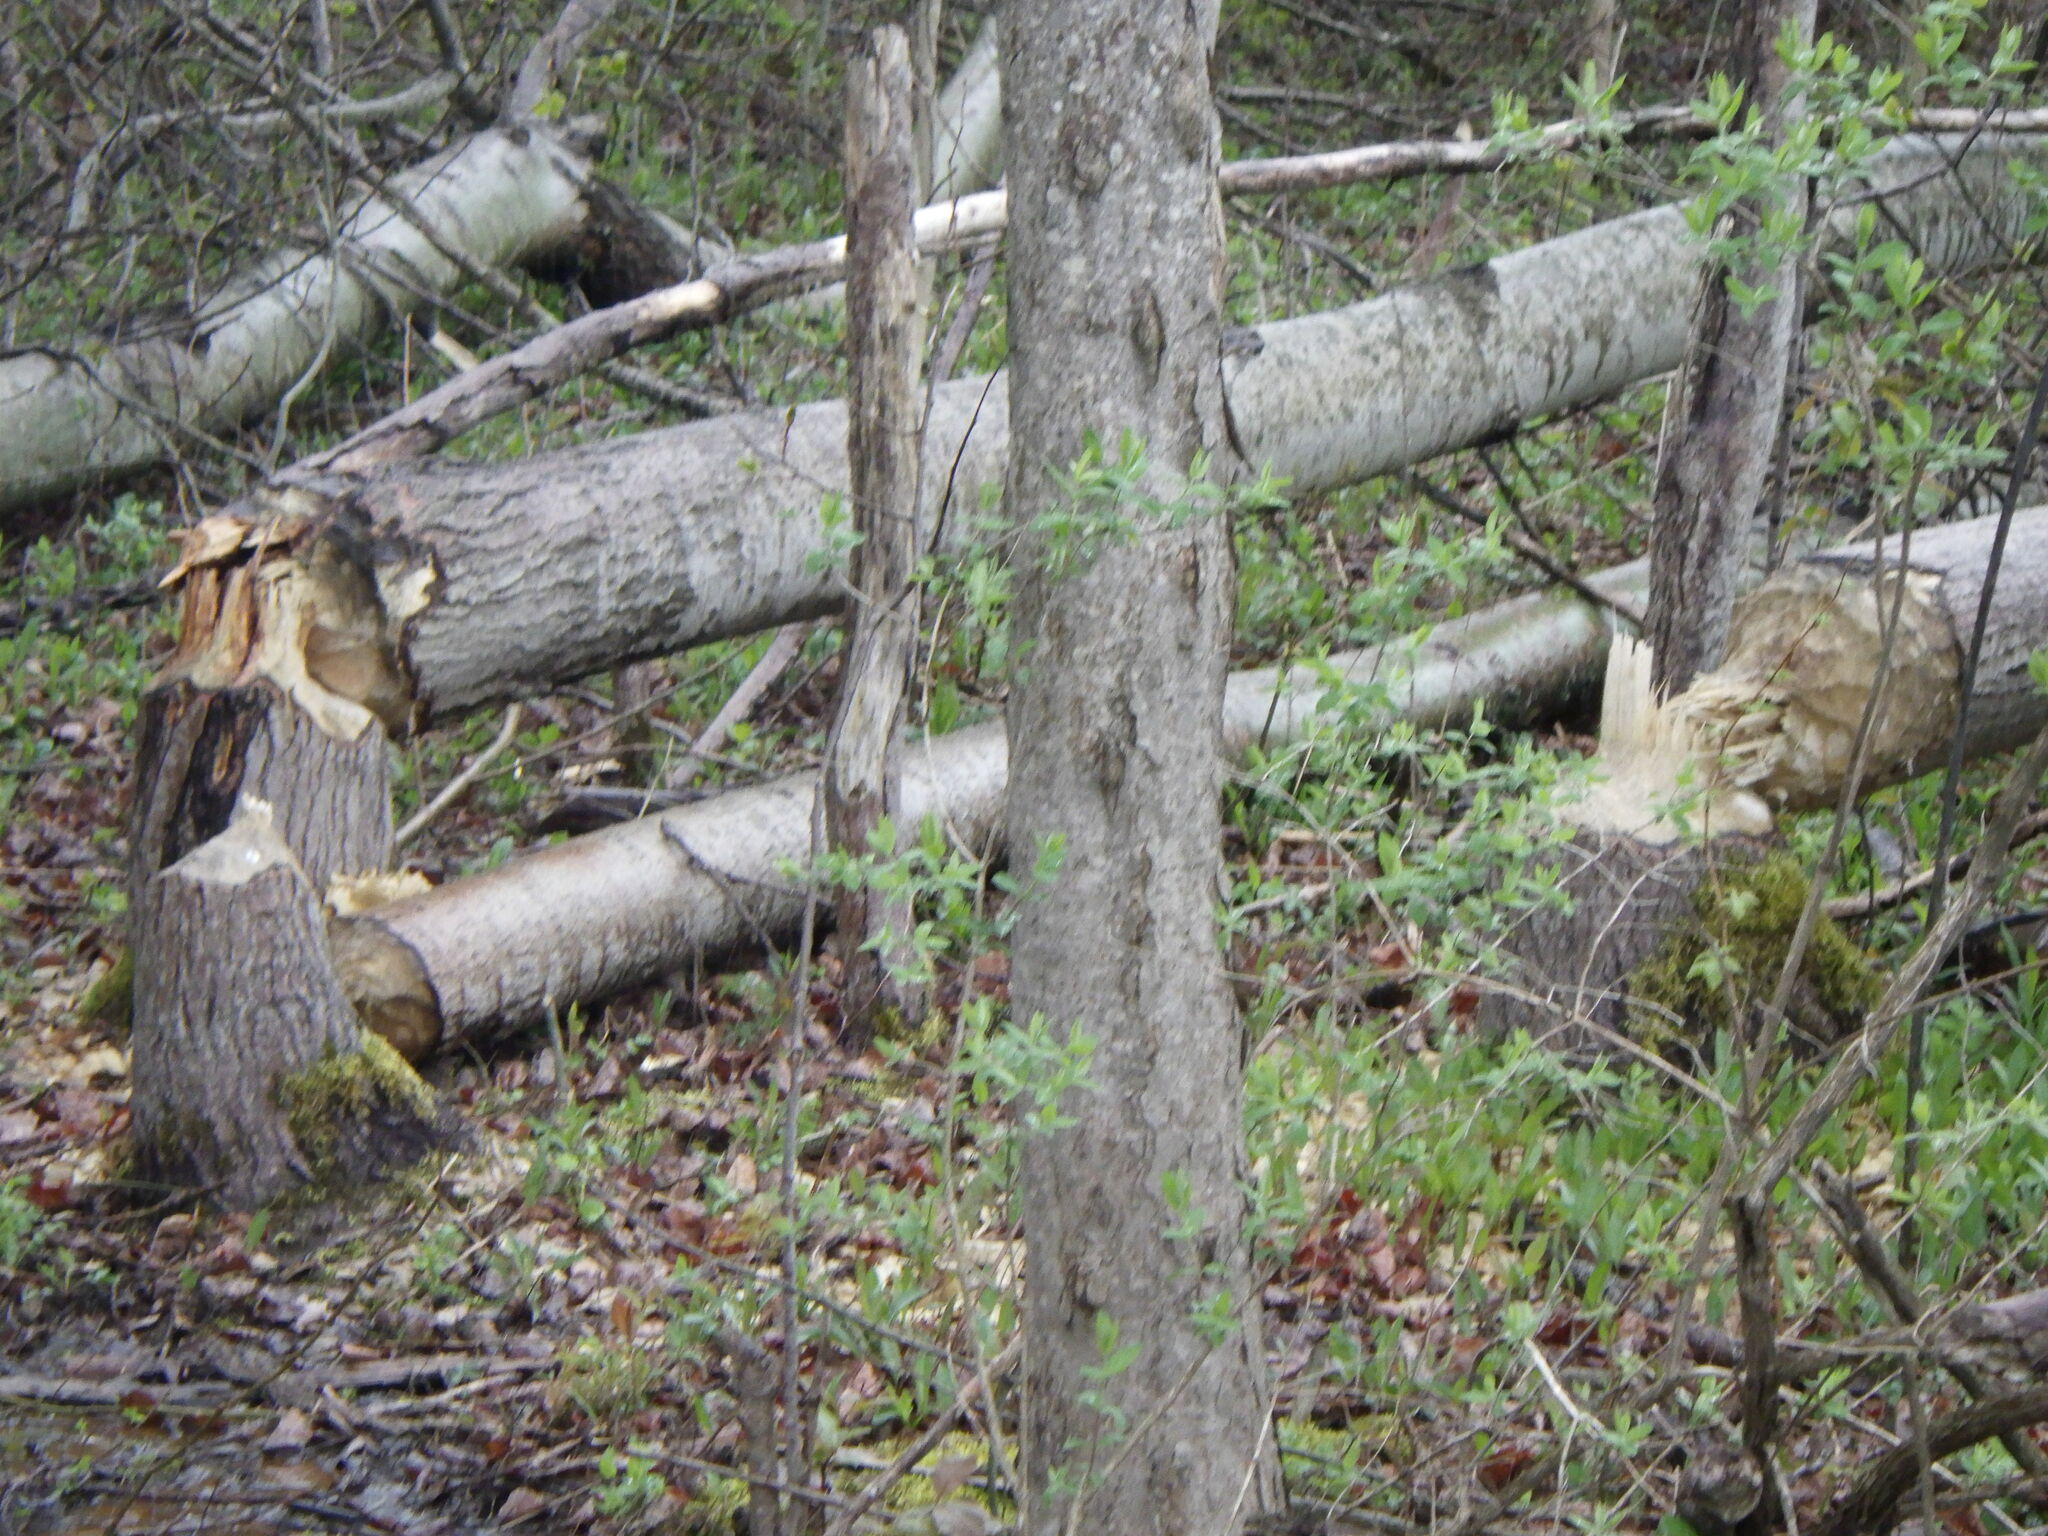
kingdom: Animalia
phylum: Chordata
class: Mammalia
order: Rodentia
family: Castoridae
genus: Castor
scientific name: Castor canadensis
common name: American beaver
